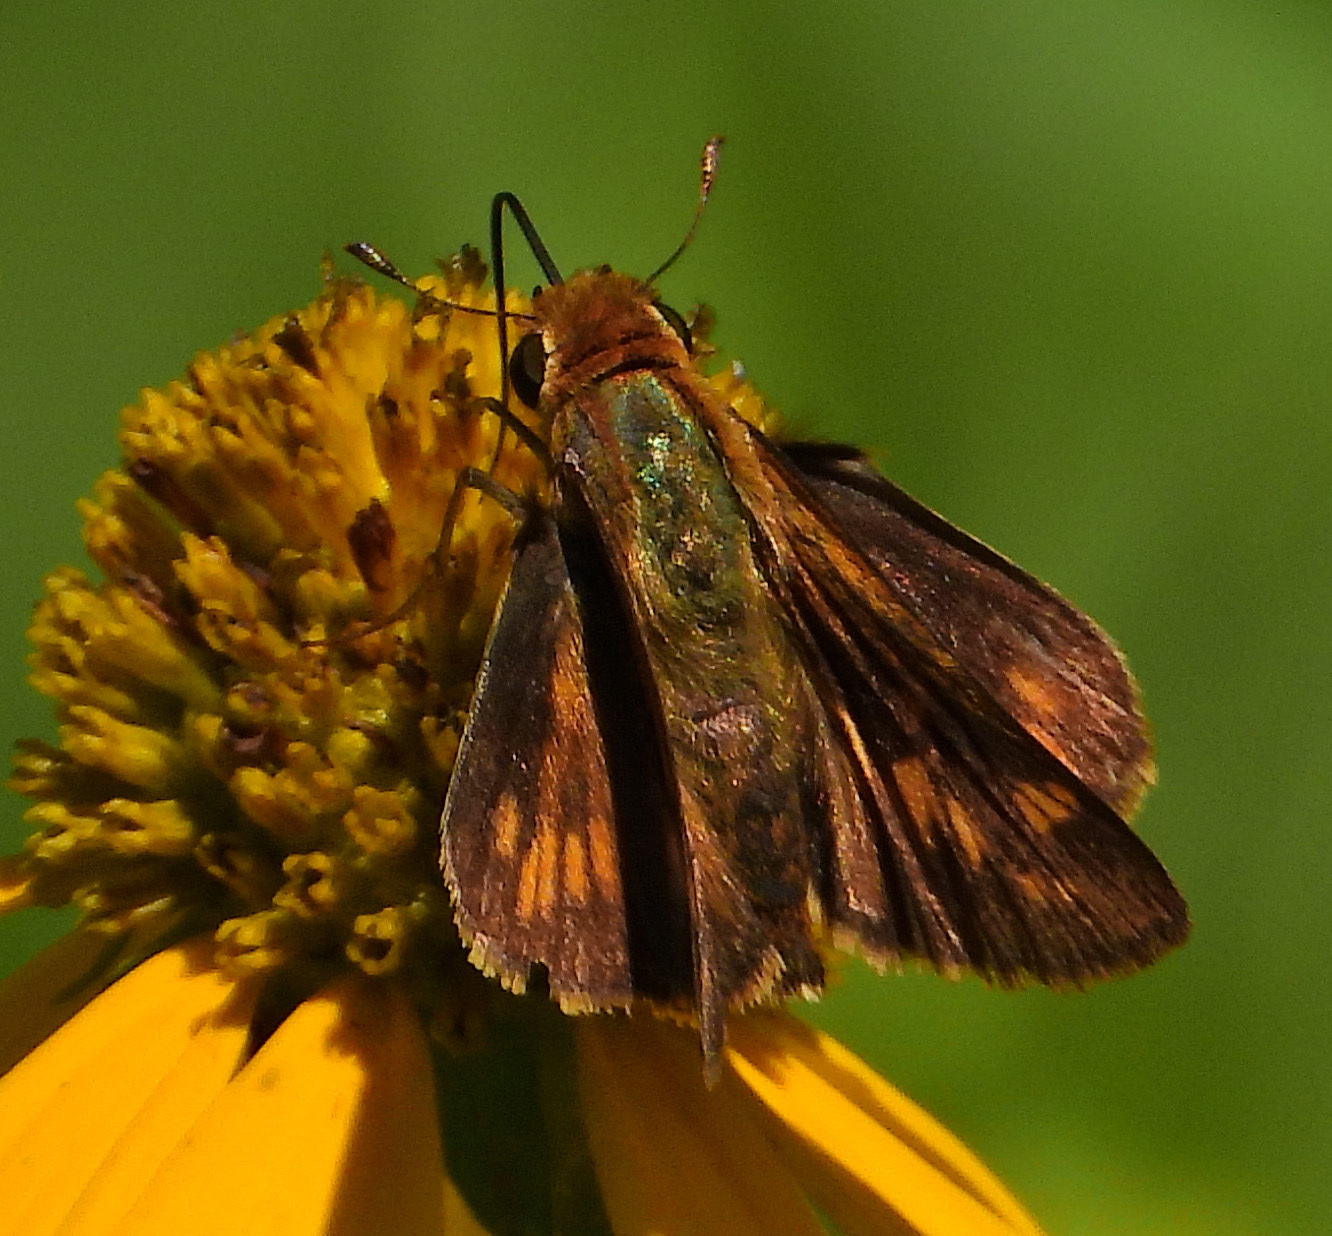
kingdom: Animalia
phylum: Arthropoda
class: Insecta
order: Lepidoptera
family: Hesperiidae
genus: Hylephila
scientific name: Hylephila phyleus
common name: Fiery skipper
